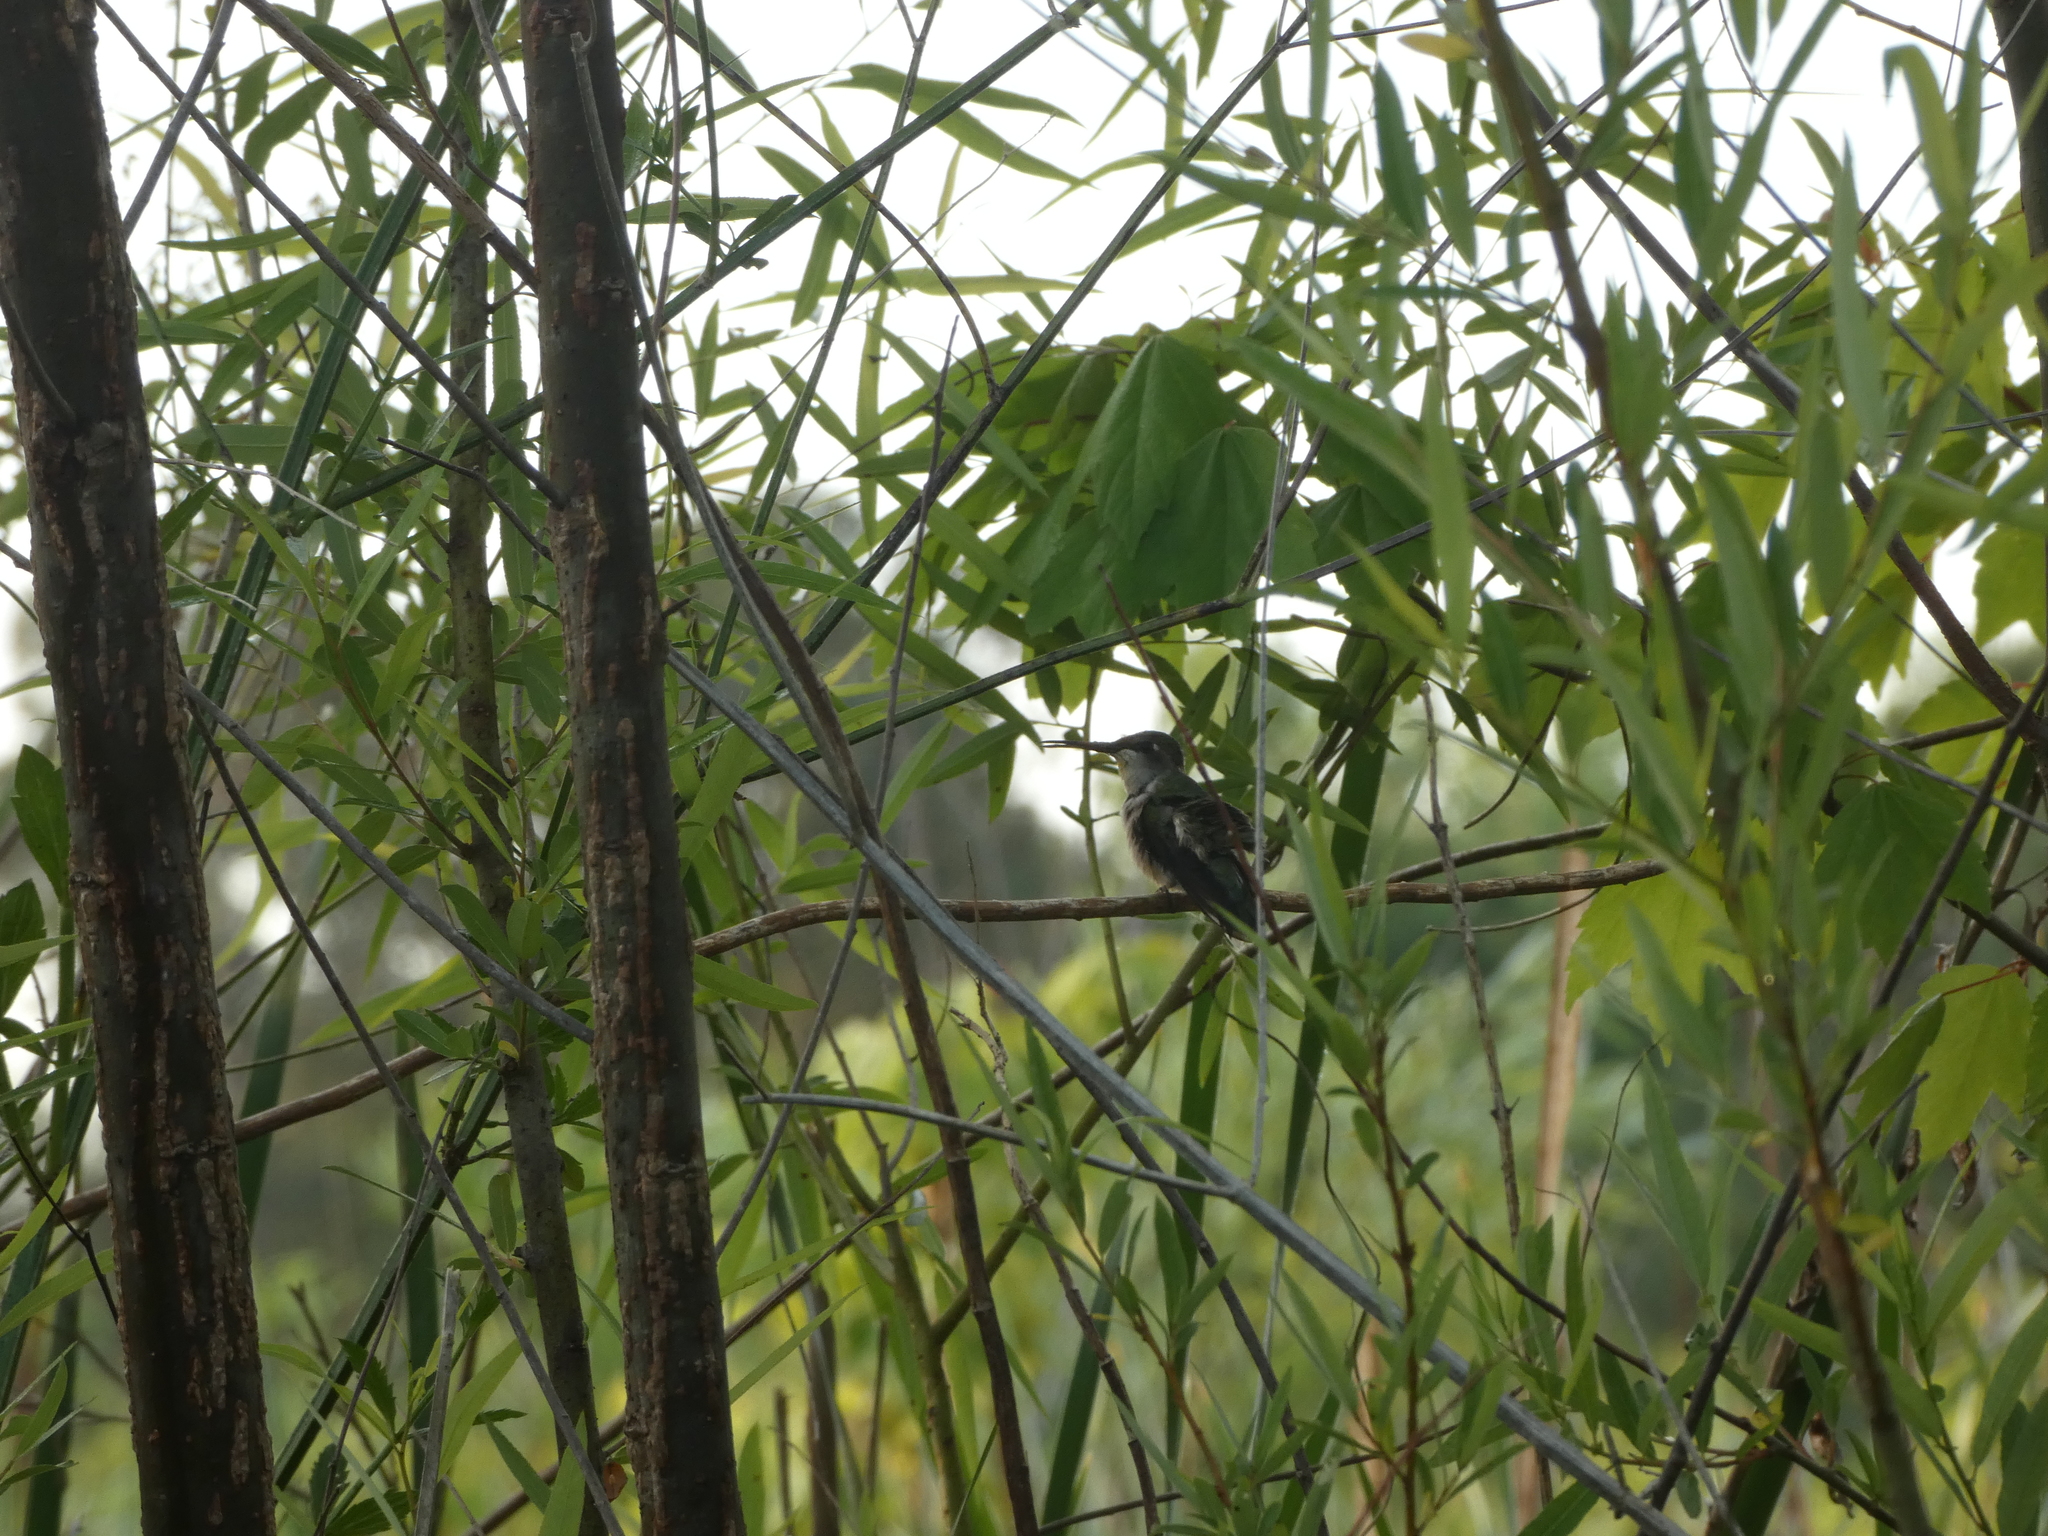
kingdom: Animalia
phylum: Chordata
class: Aves
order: Apodiformes
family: Trochilidae
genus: Archilochus
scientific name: Archilochus colubris
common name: Ruby-throated hummingbird
